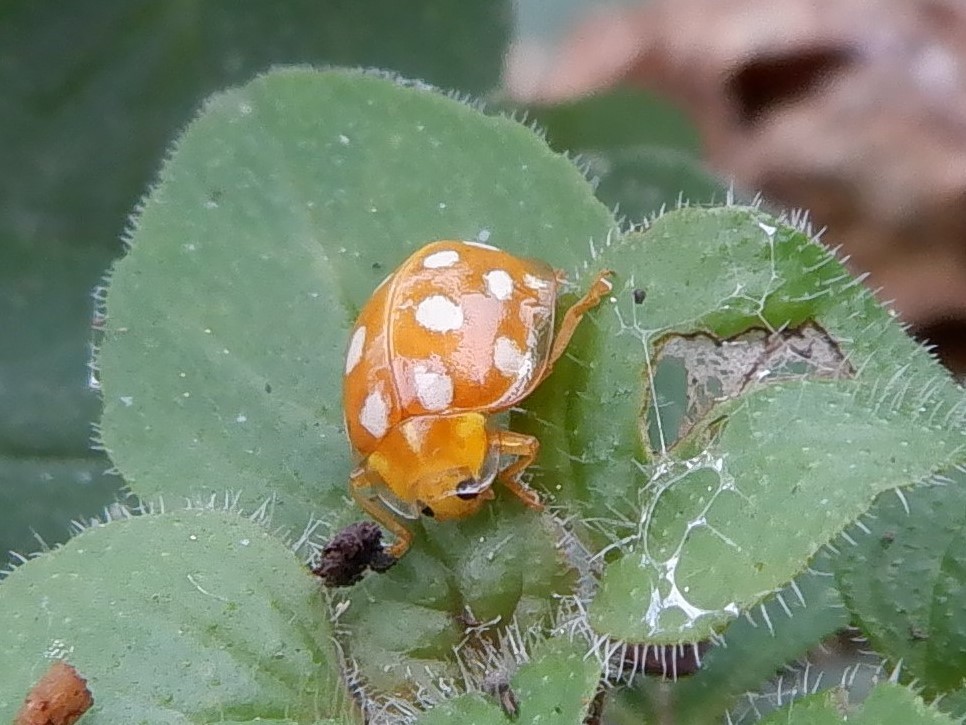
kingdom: Animalia
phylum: Arthropoda
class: Insecta
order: Coleoptera
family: Coccinellidae
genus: Halyzia
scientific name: Halyzia sedecimguttata
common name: Orange ladybird
